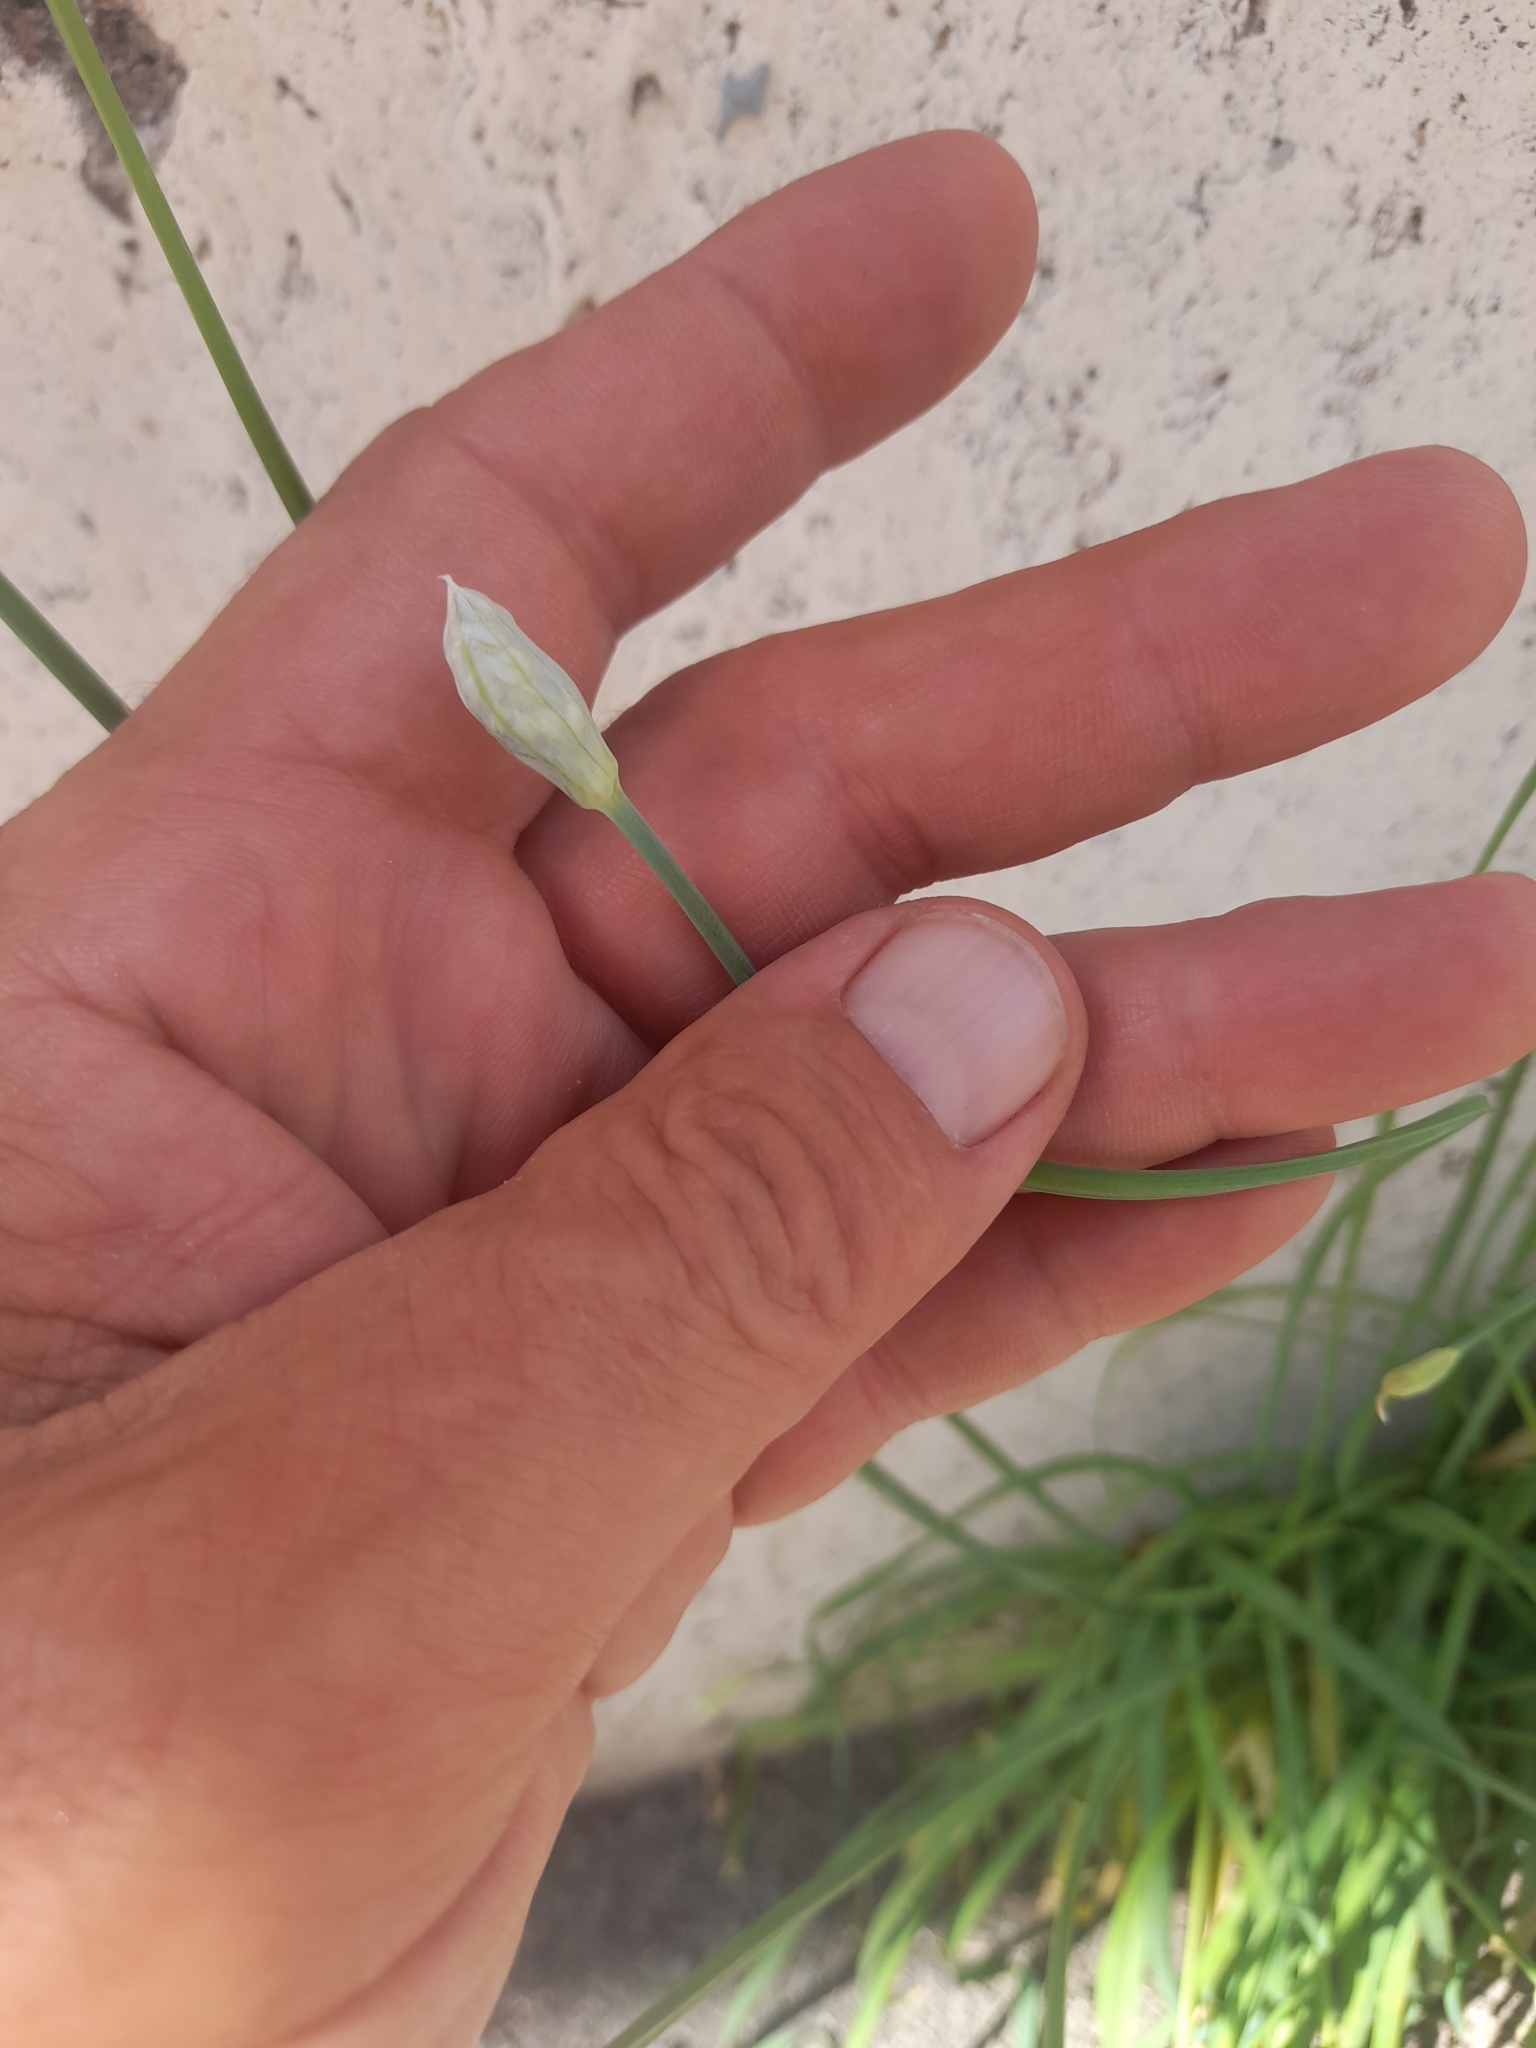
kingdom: Plantae
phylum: Tracheophyta
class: Liliopsida
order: Asparagales
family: Amaryllidaceae
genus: Allium
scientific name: Allium tuberosum
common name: Chinese chives
